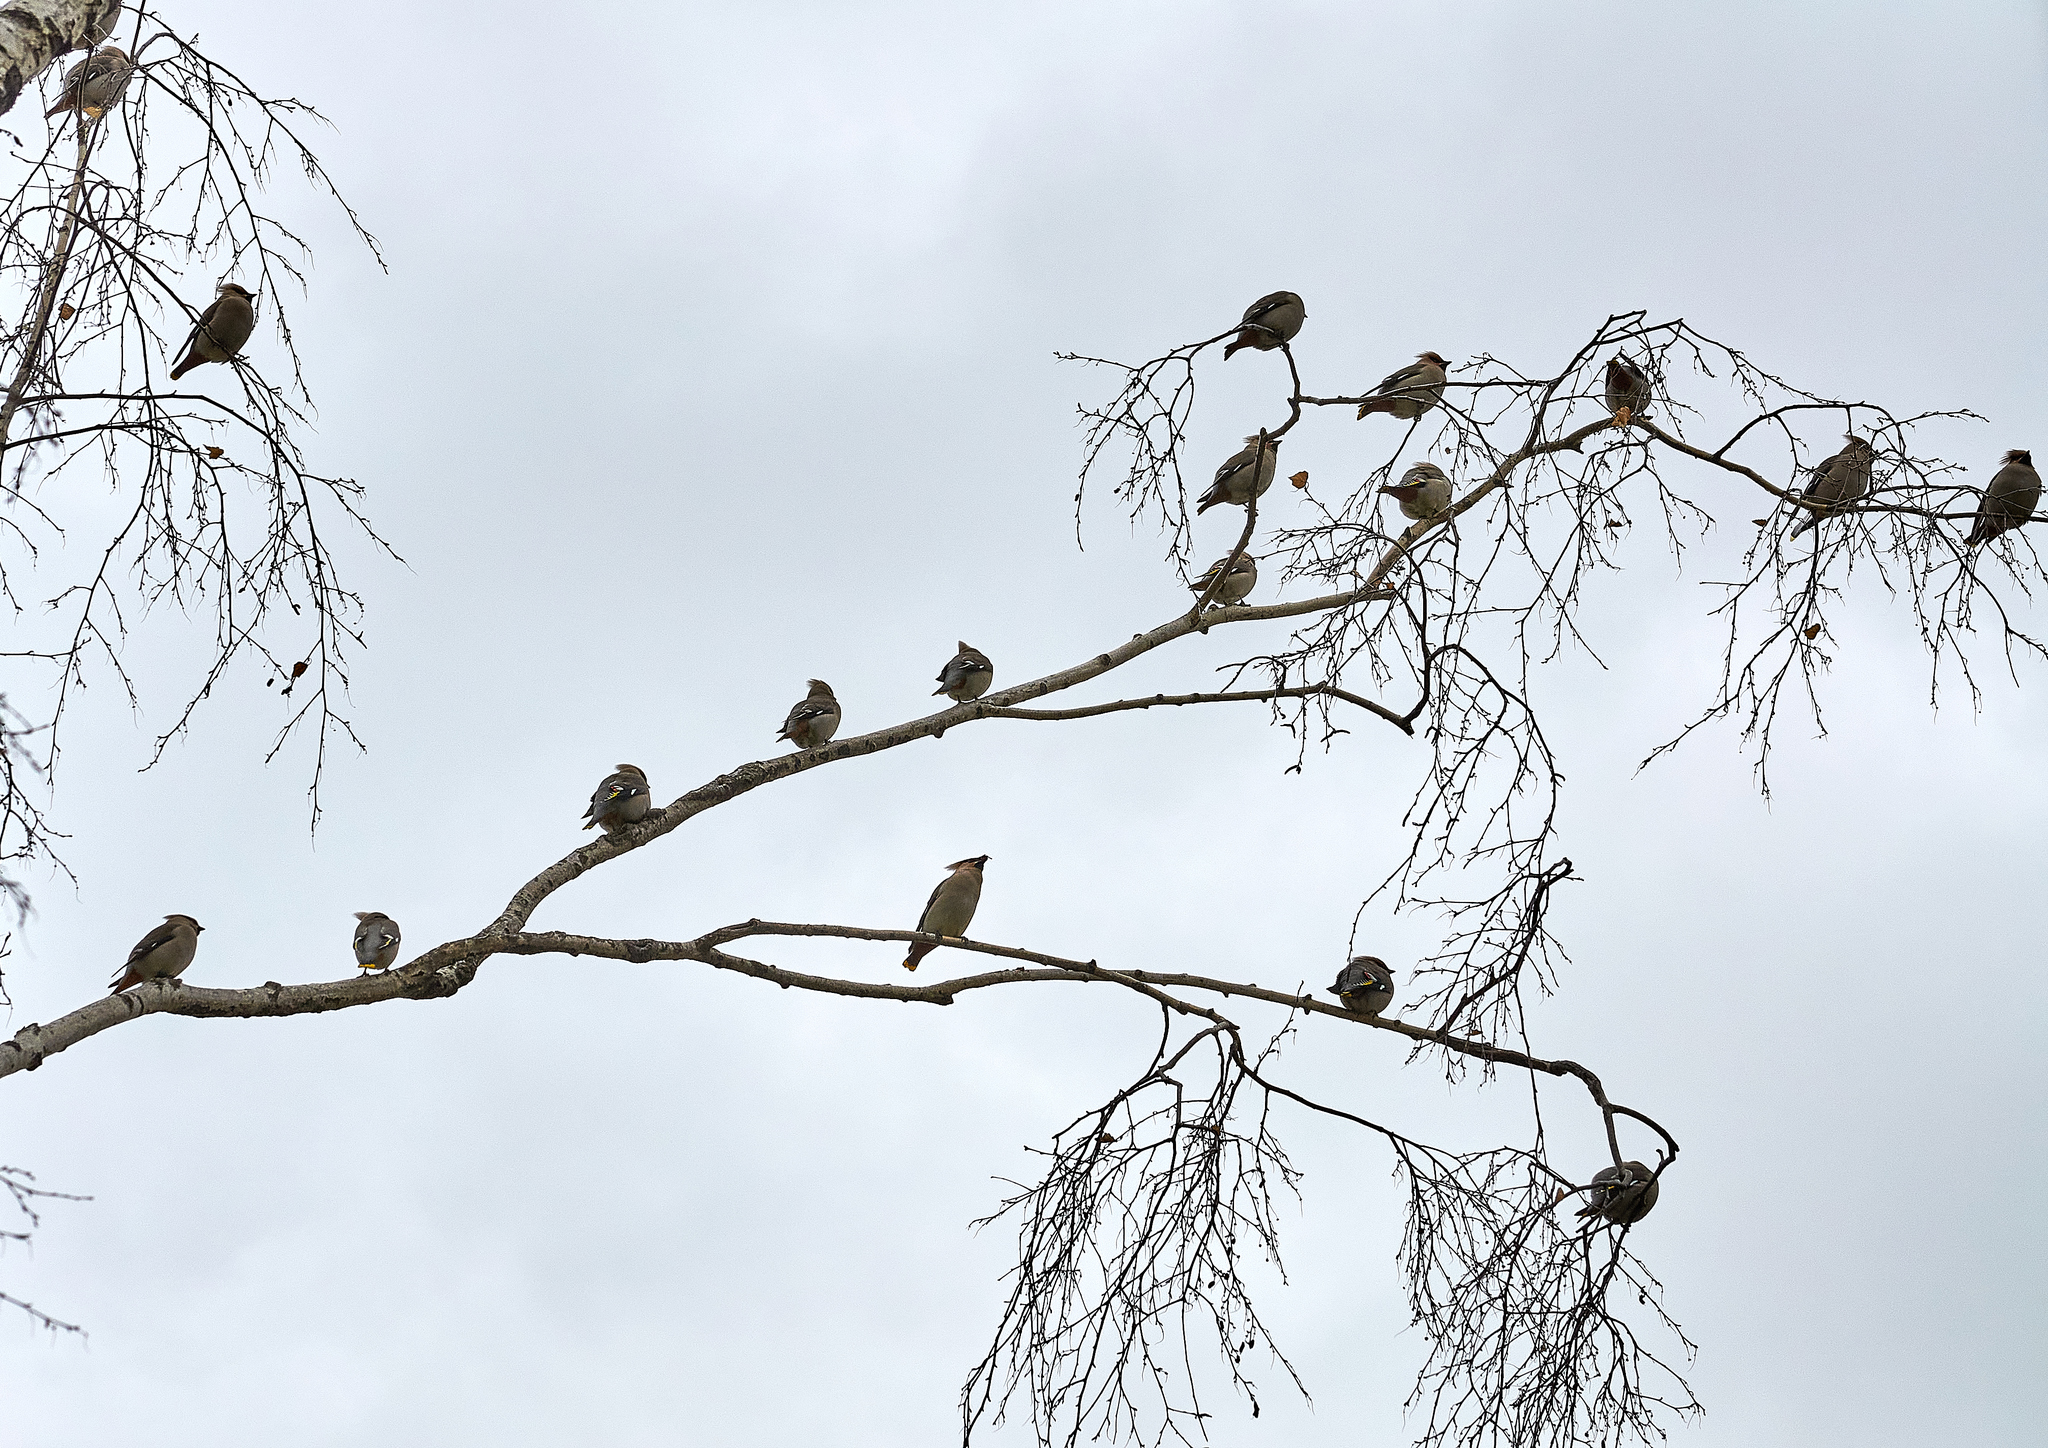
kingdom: Animalia
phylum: Chordata
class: Aves
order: Passeriformes
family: Bombycillidae
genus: Bombycilla
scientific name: Bombycilla garrulus
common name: Bohemian waxwing
